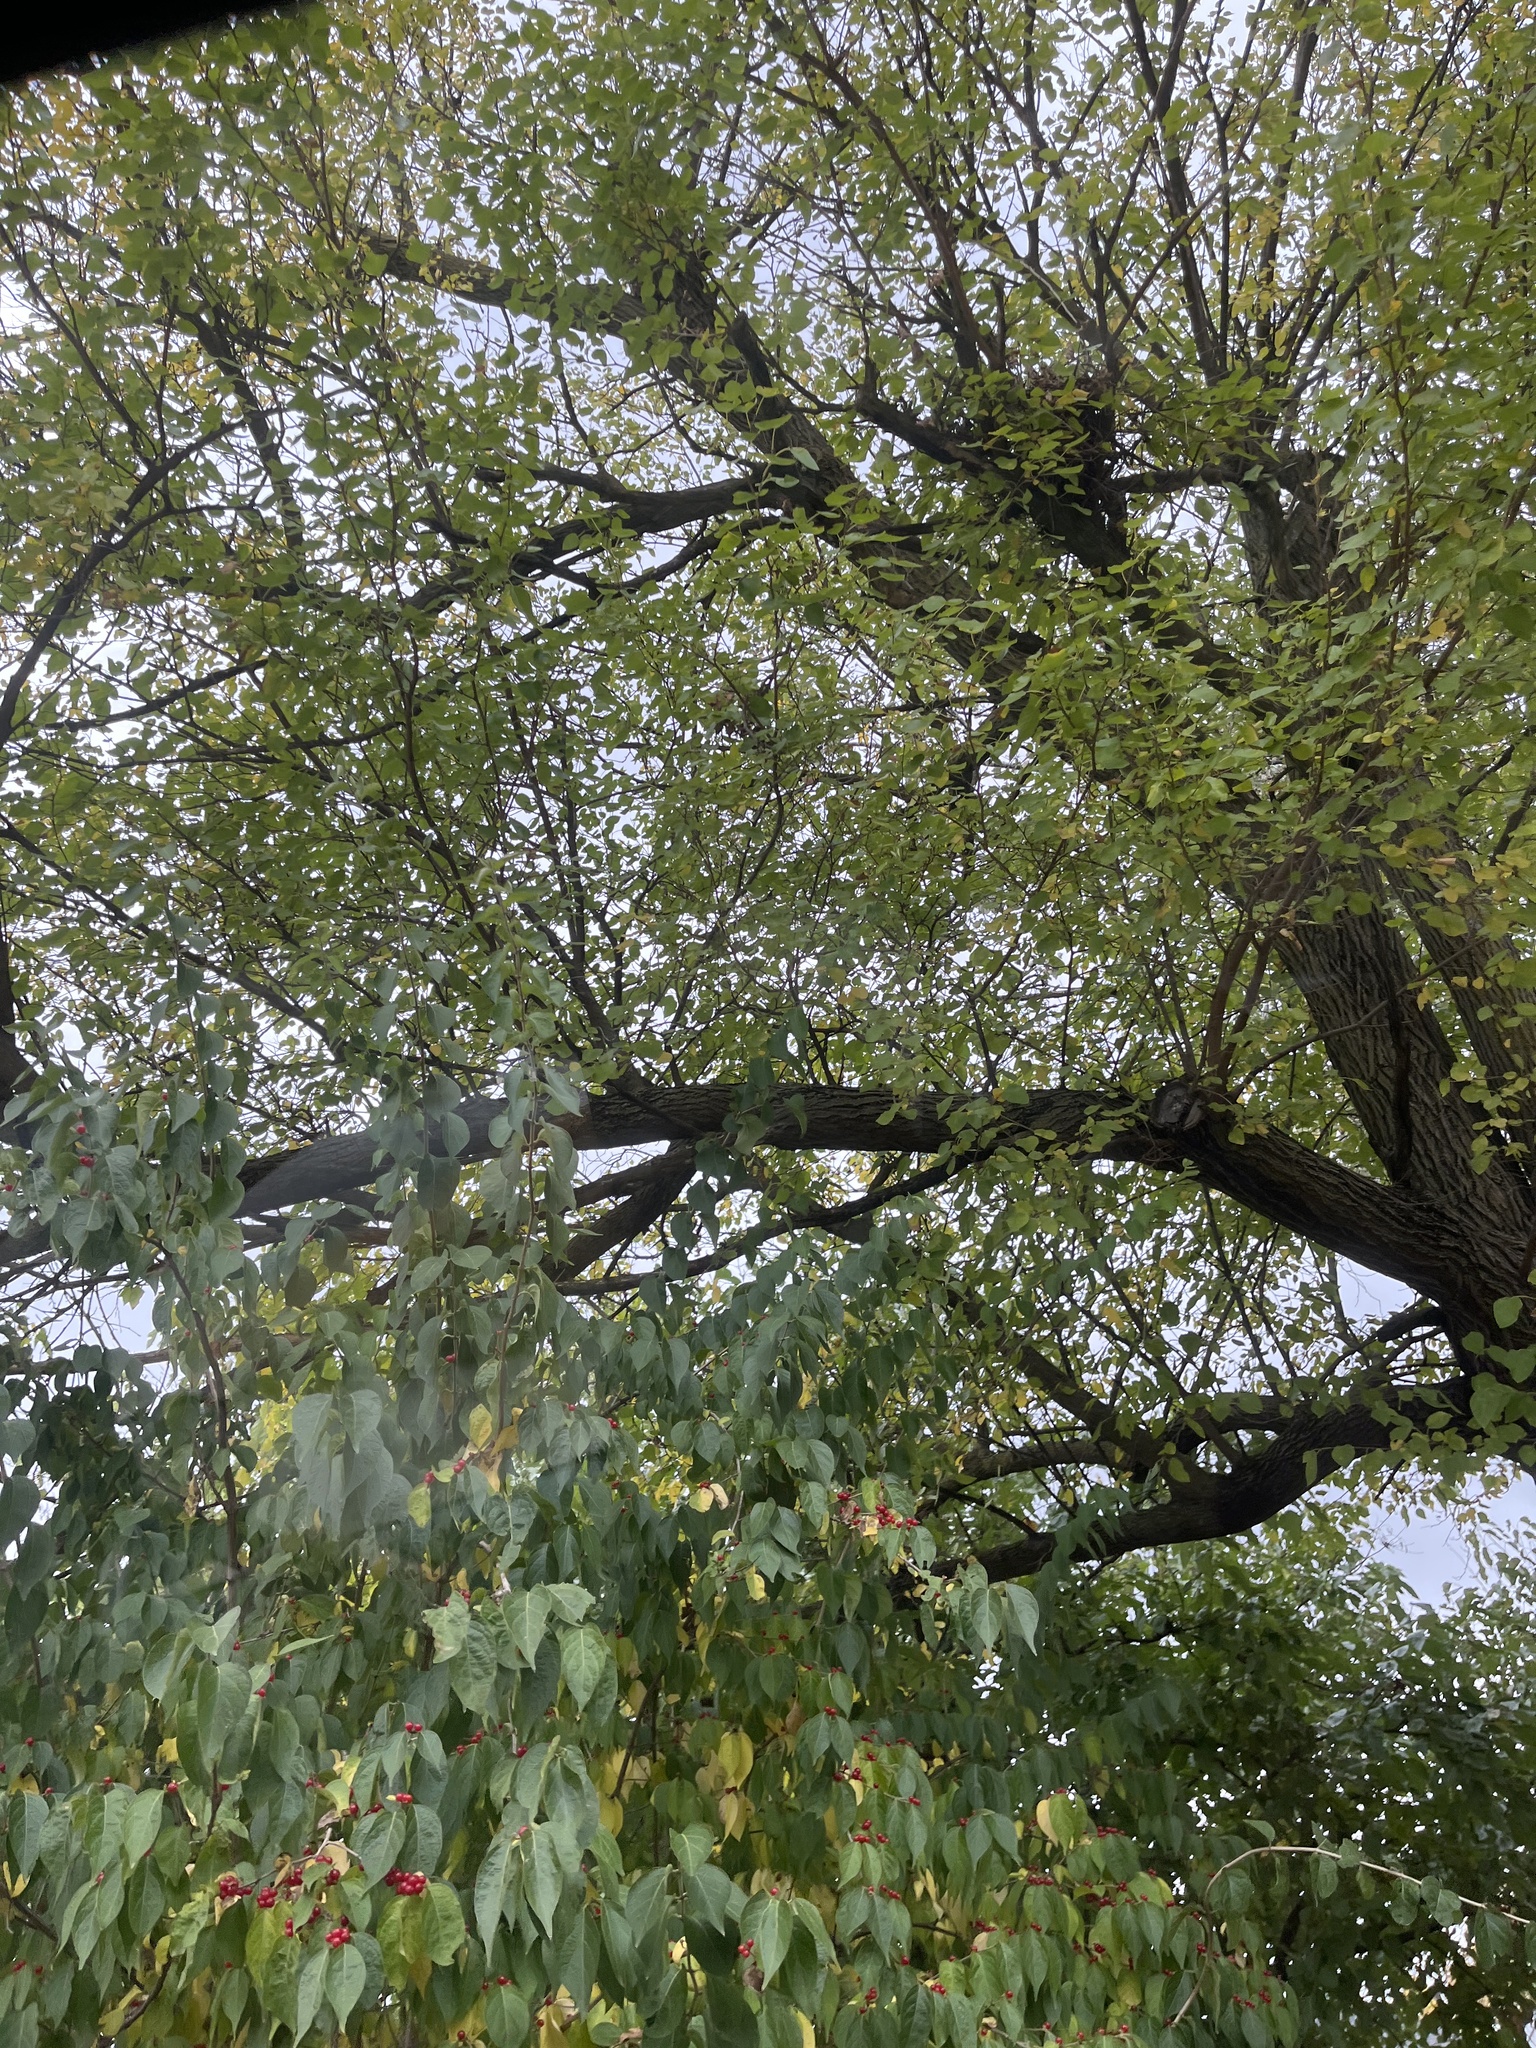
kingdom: Plantae
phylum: Tracheophyta
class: Magnoliopsida
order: Dipsacales
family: Caprifoliaceae
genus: Lonicera
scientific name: Lonicera maackii
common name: Amur honeysuckle
